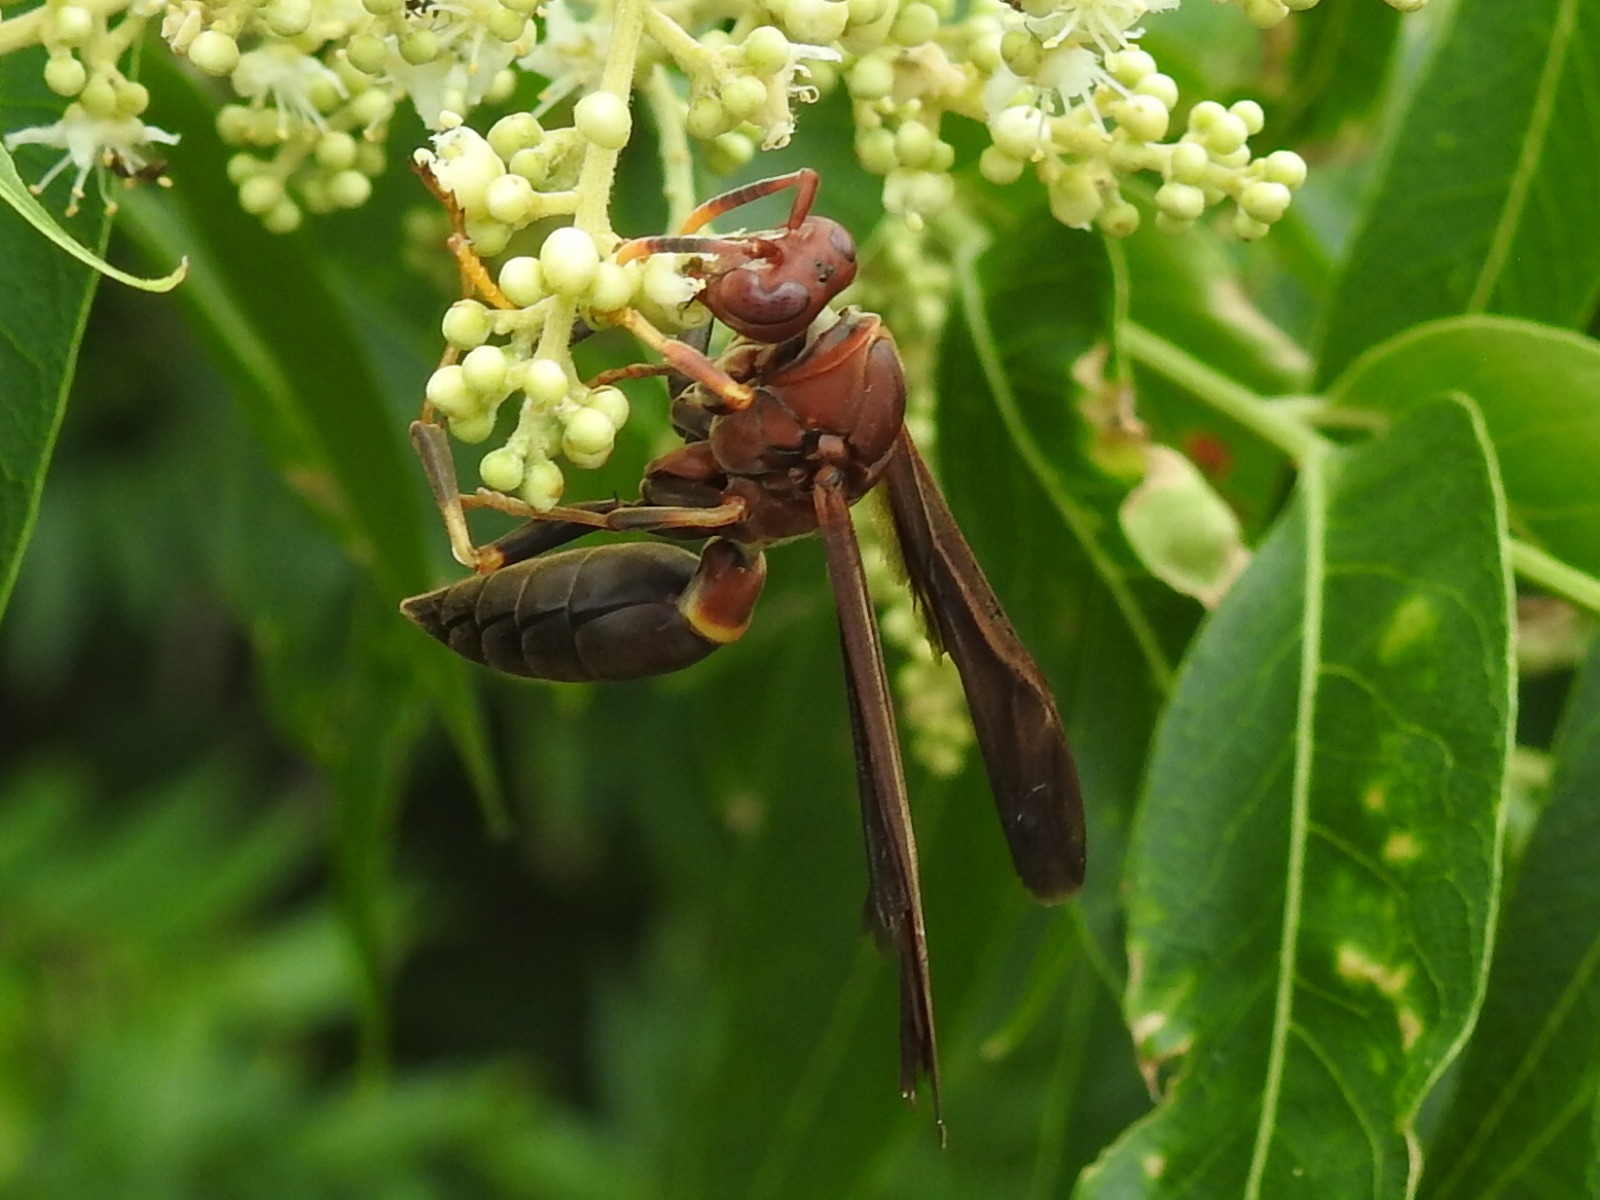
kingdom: Animalia
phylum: Arthropoda
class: Insecta
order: Hymenoptera
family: Eumenidae
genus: Polistes
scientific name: Polistes annularis
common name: Ringed paper wasp
